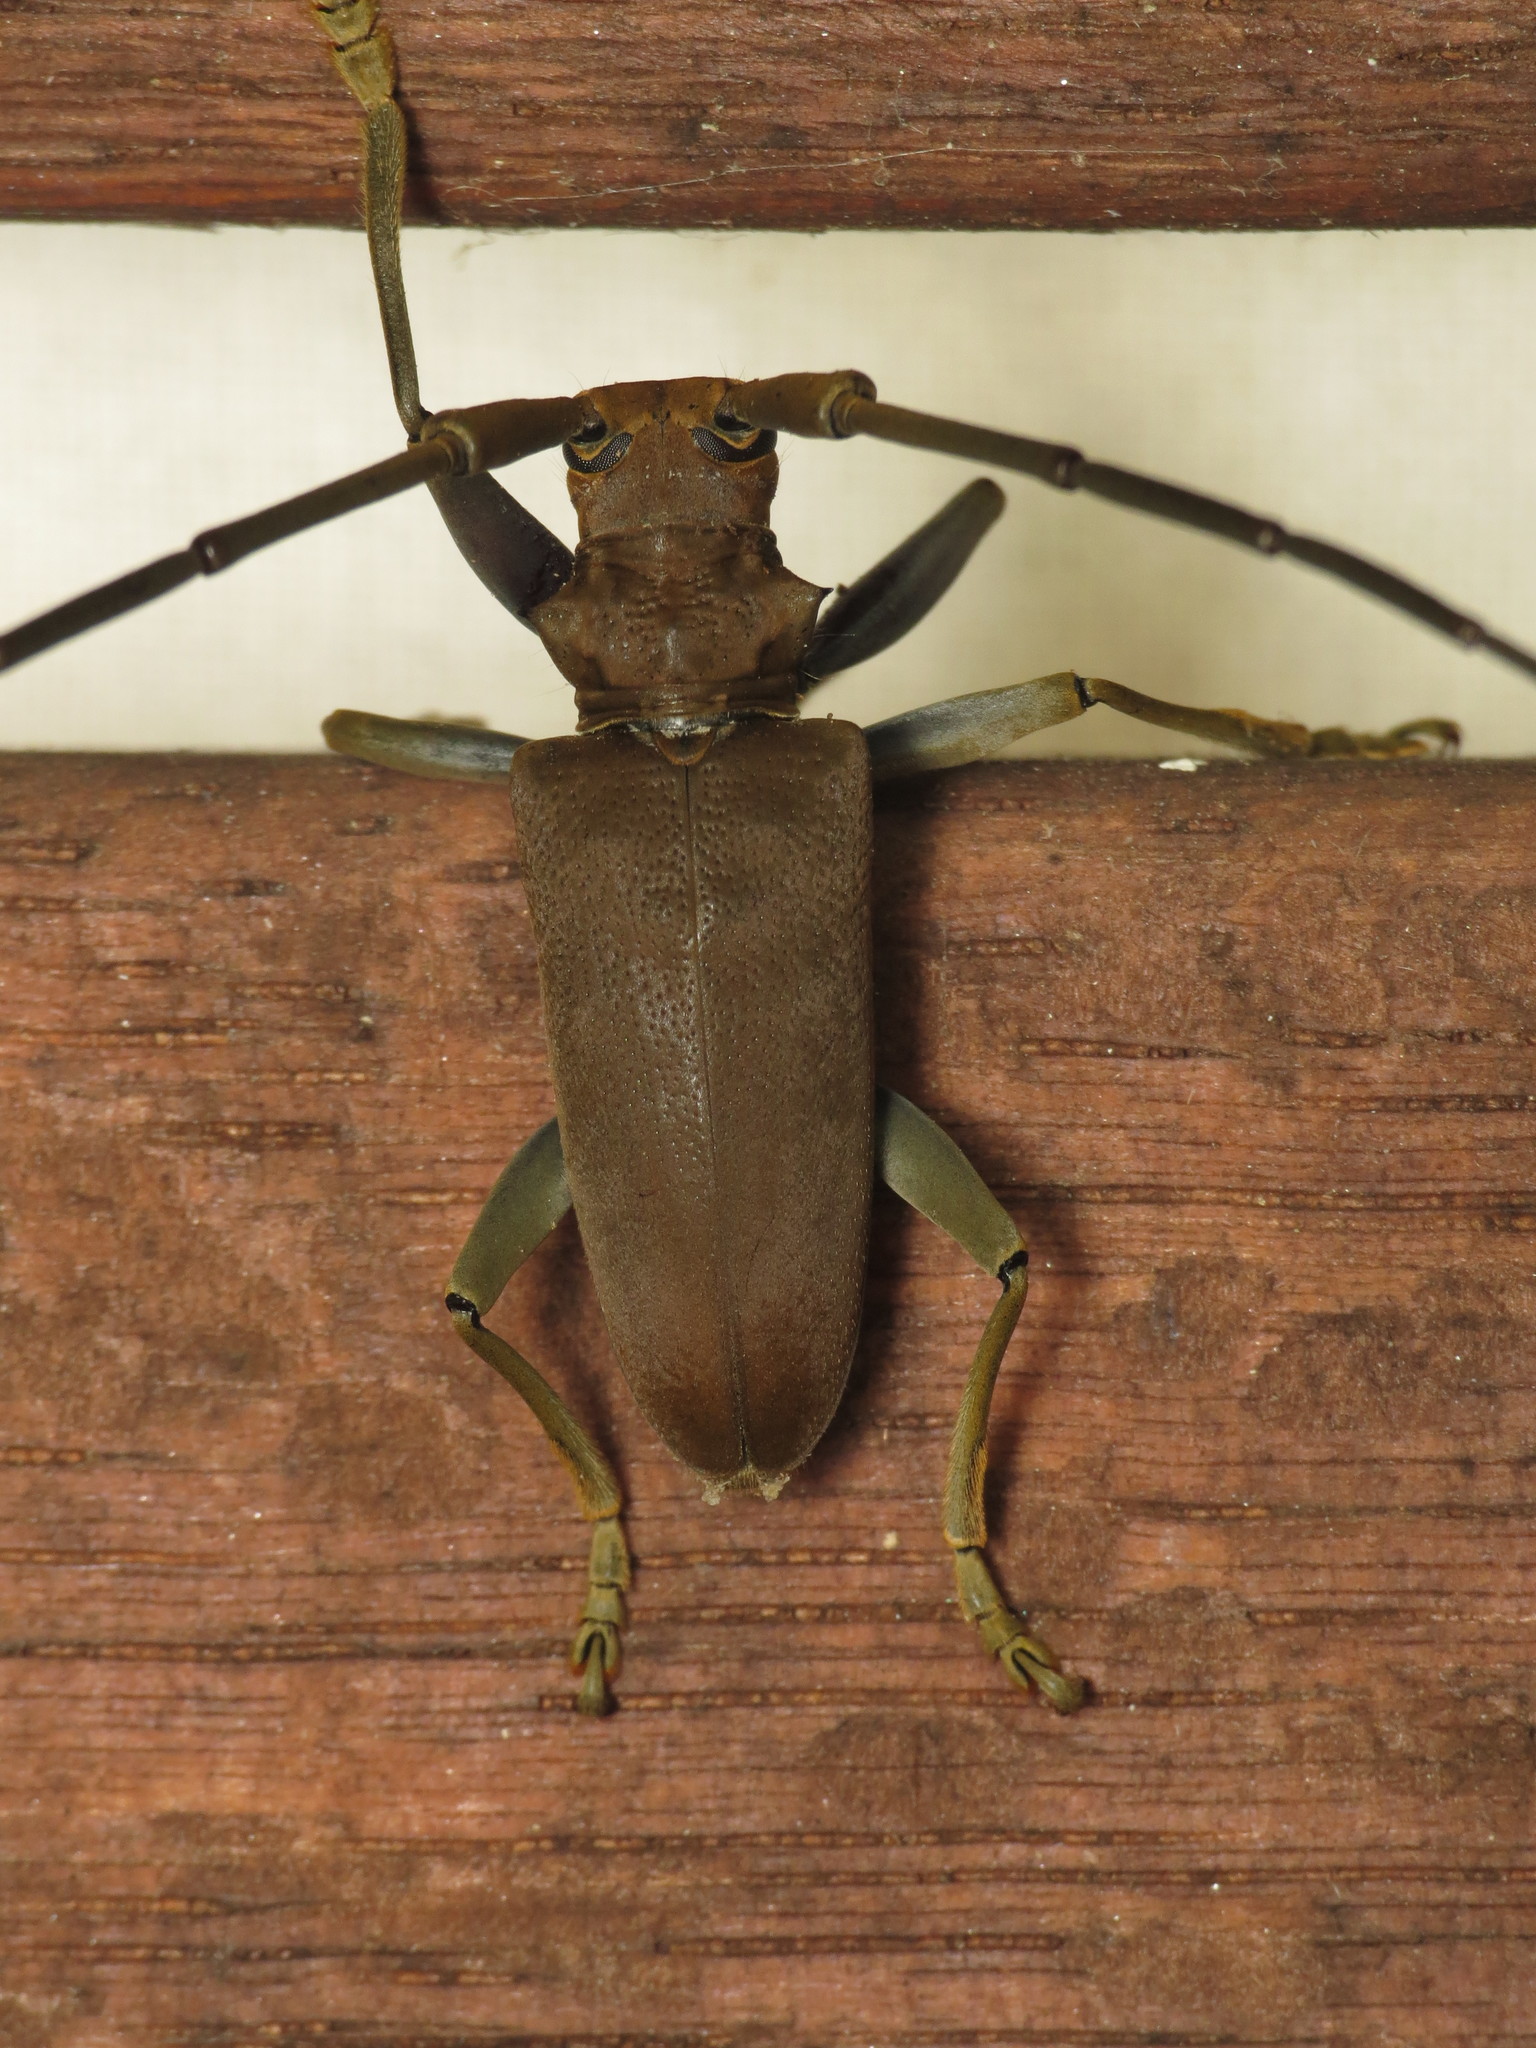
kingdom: Animalia
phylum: Arthropoda
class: Insecta
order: Coleoptera
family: Cerambycidae
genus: Acalolepta
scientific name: Acalolepta aesthetica
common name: Longhorned beetle
